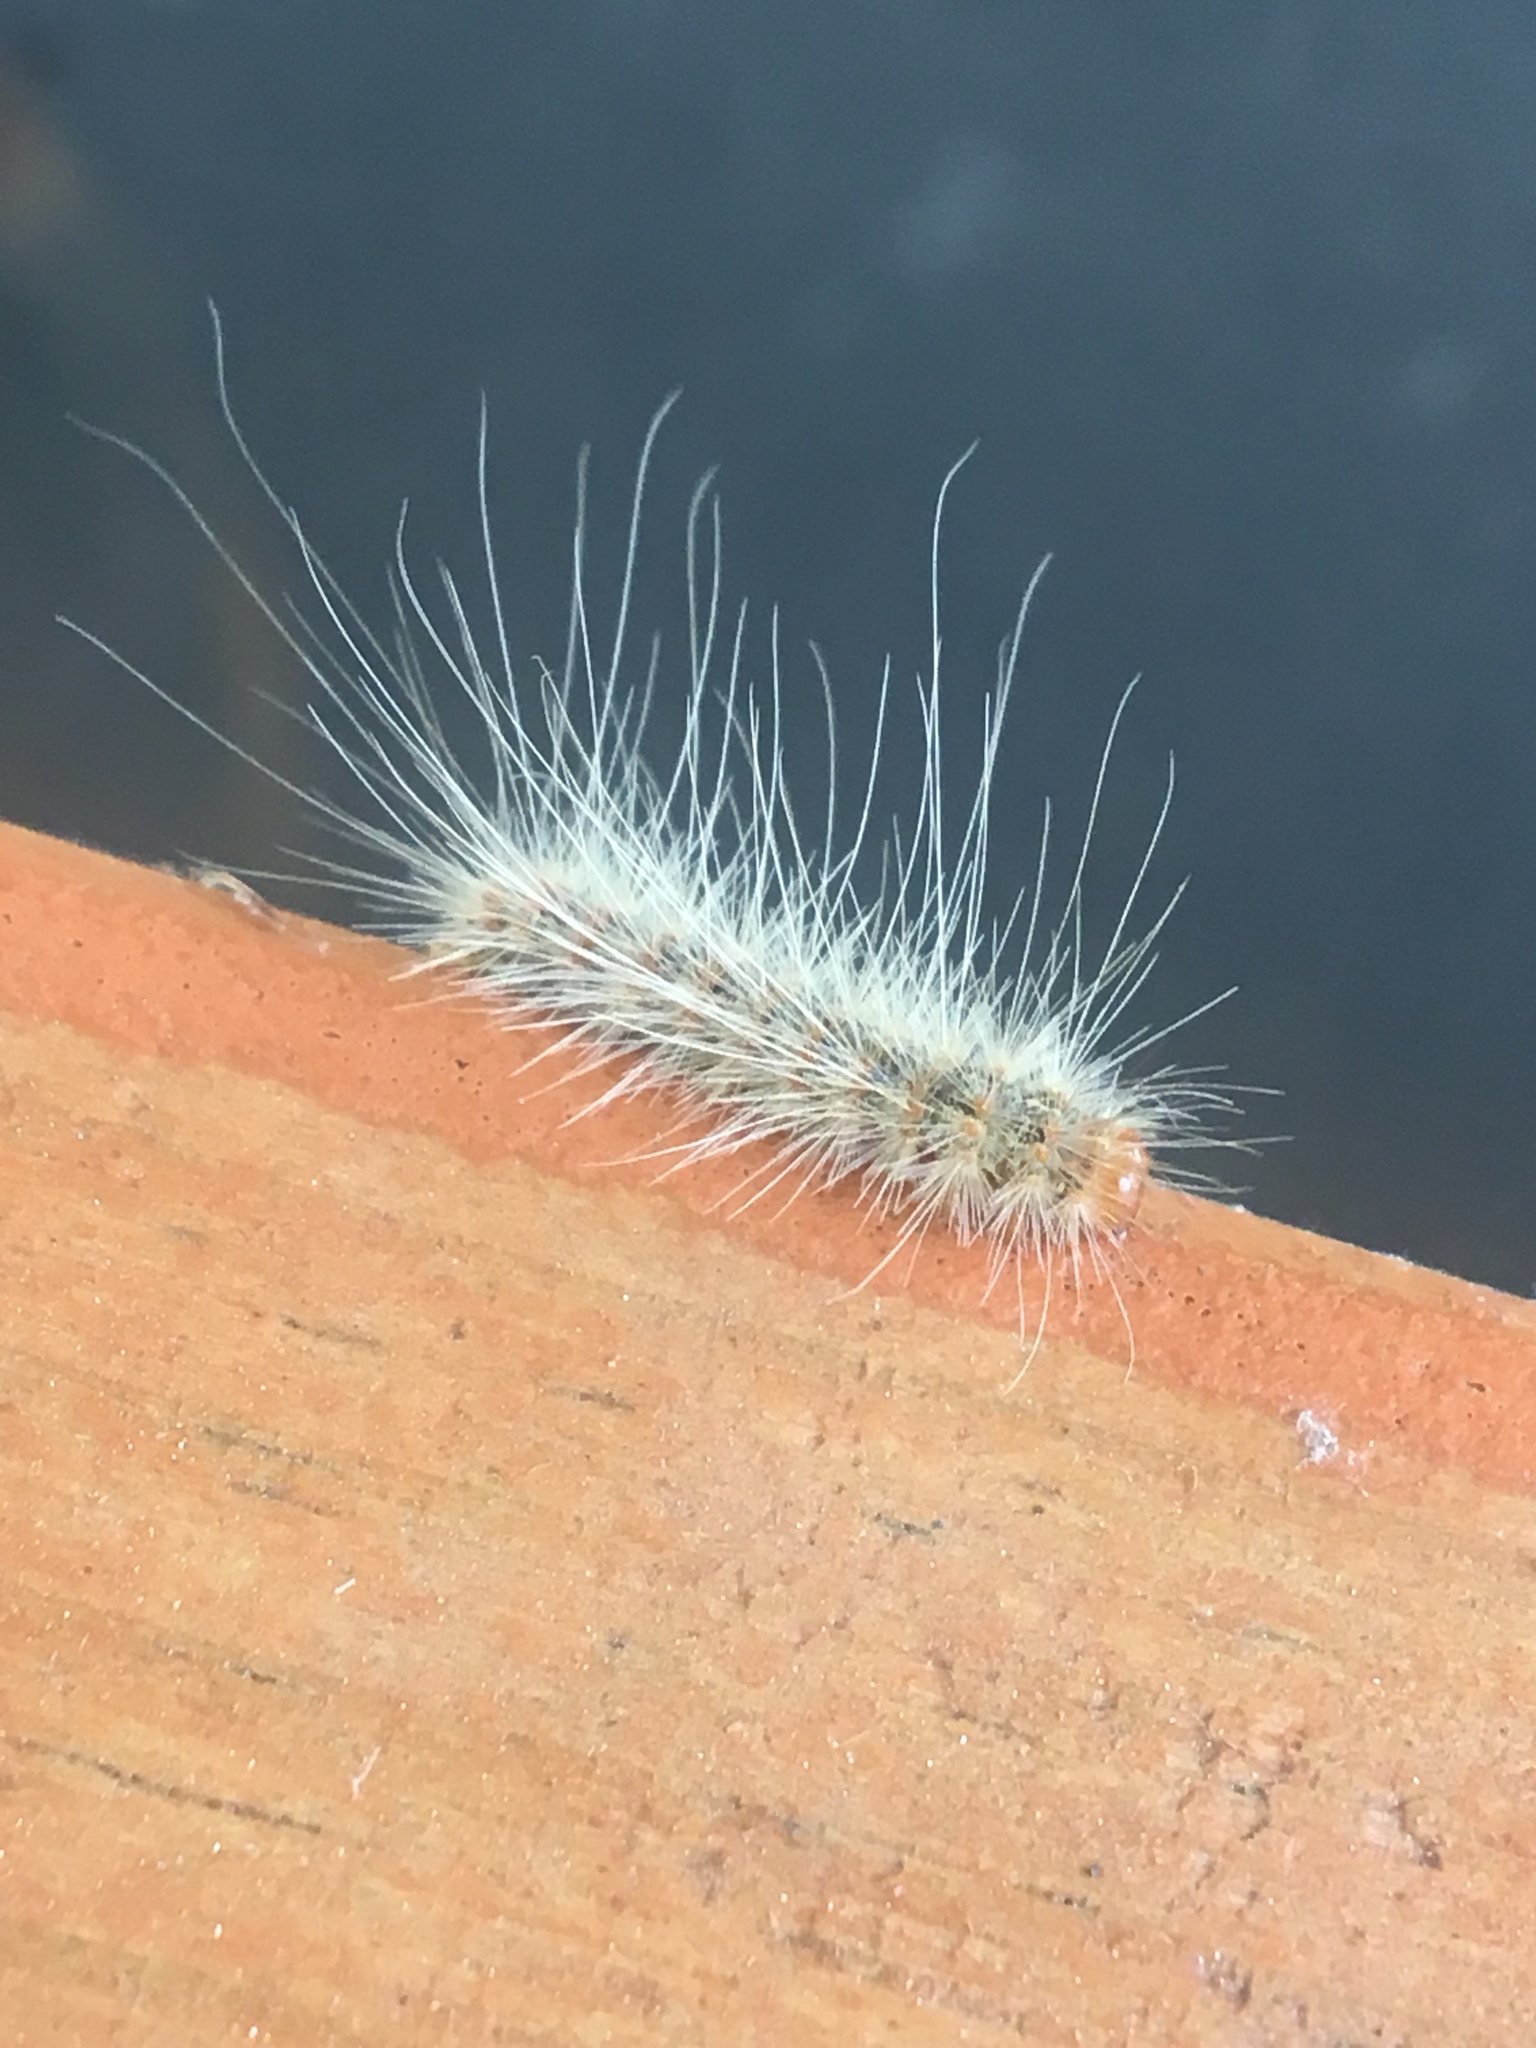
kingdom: Animalia
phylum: Arthropoda
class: Insecta
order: Lepidoptera
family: Erebidae
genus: Hyphantria
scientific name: Hyphantria cunea
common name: American white moth
